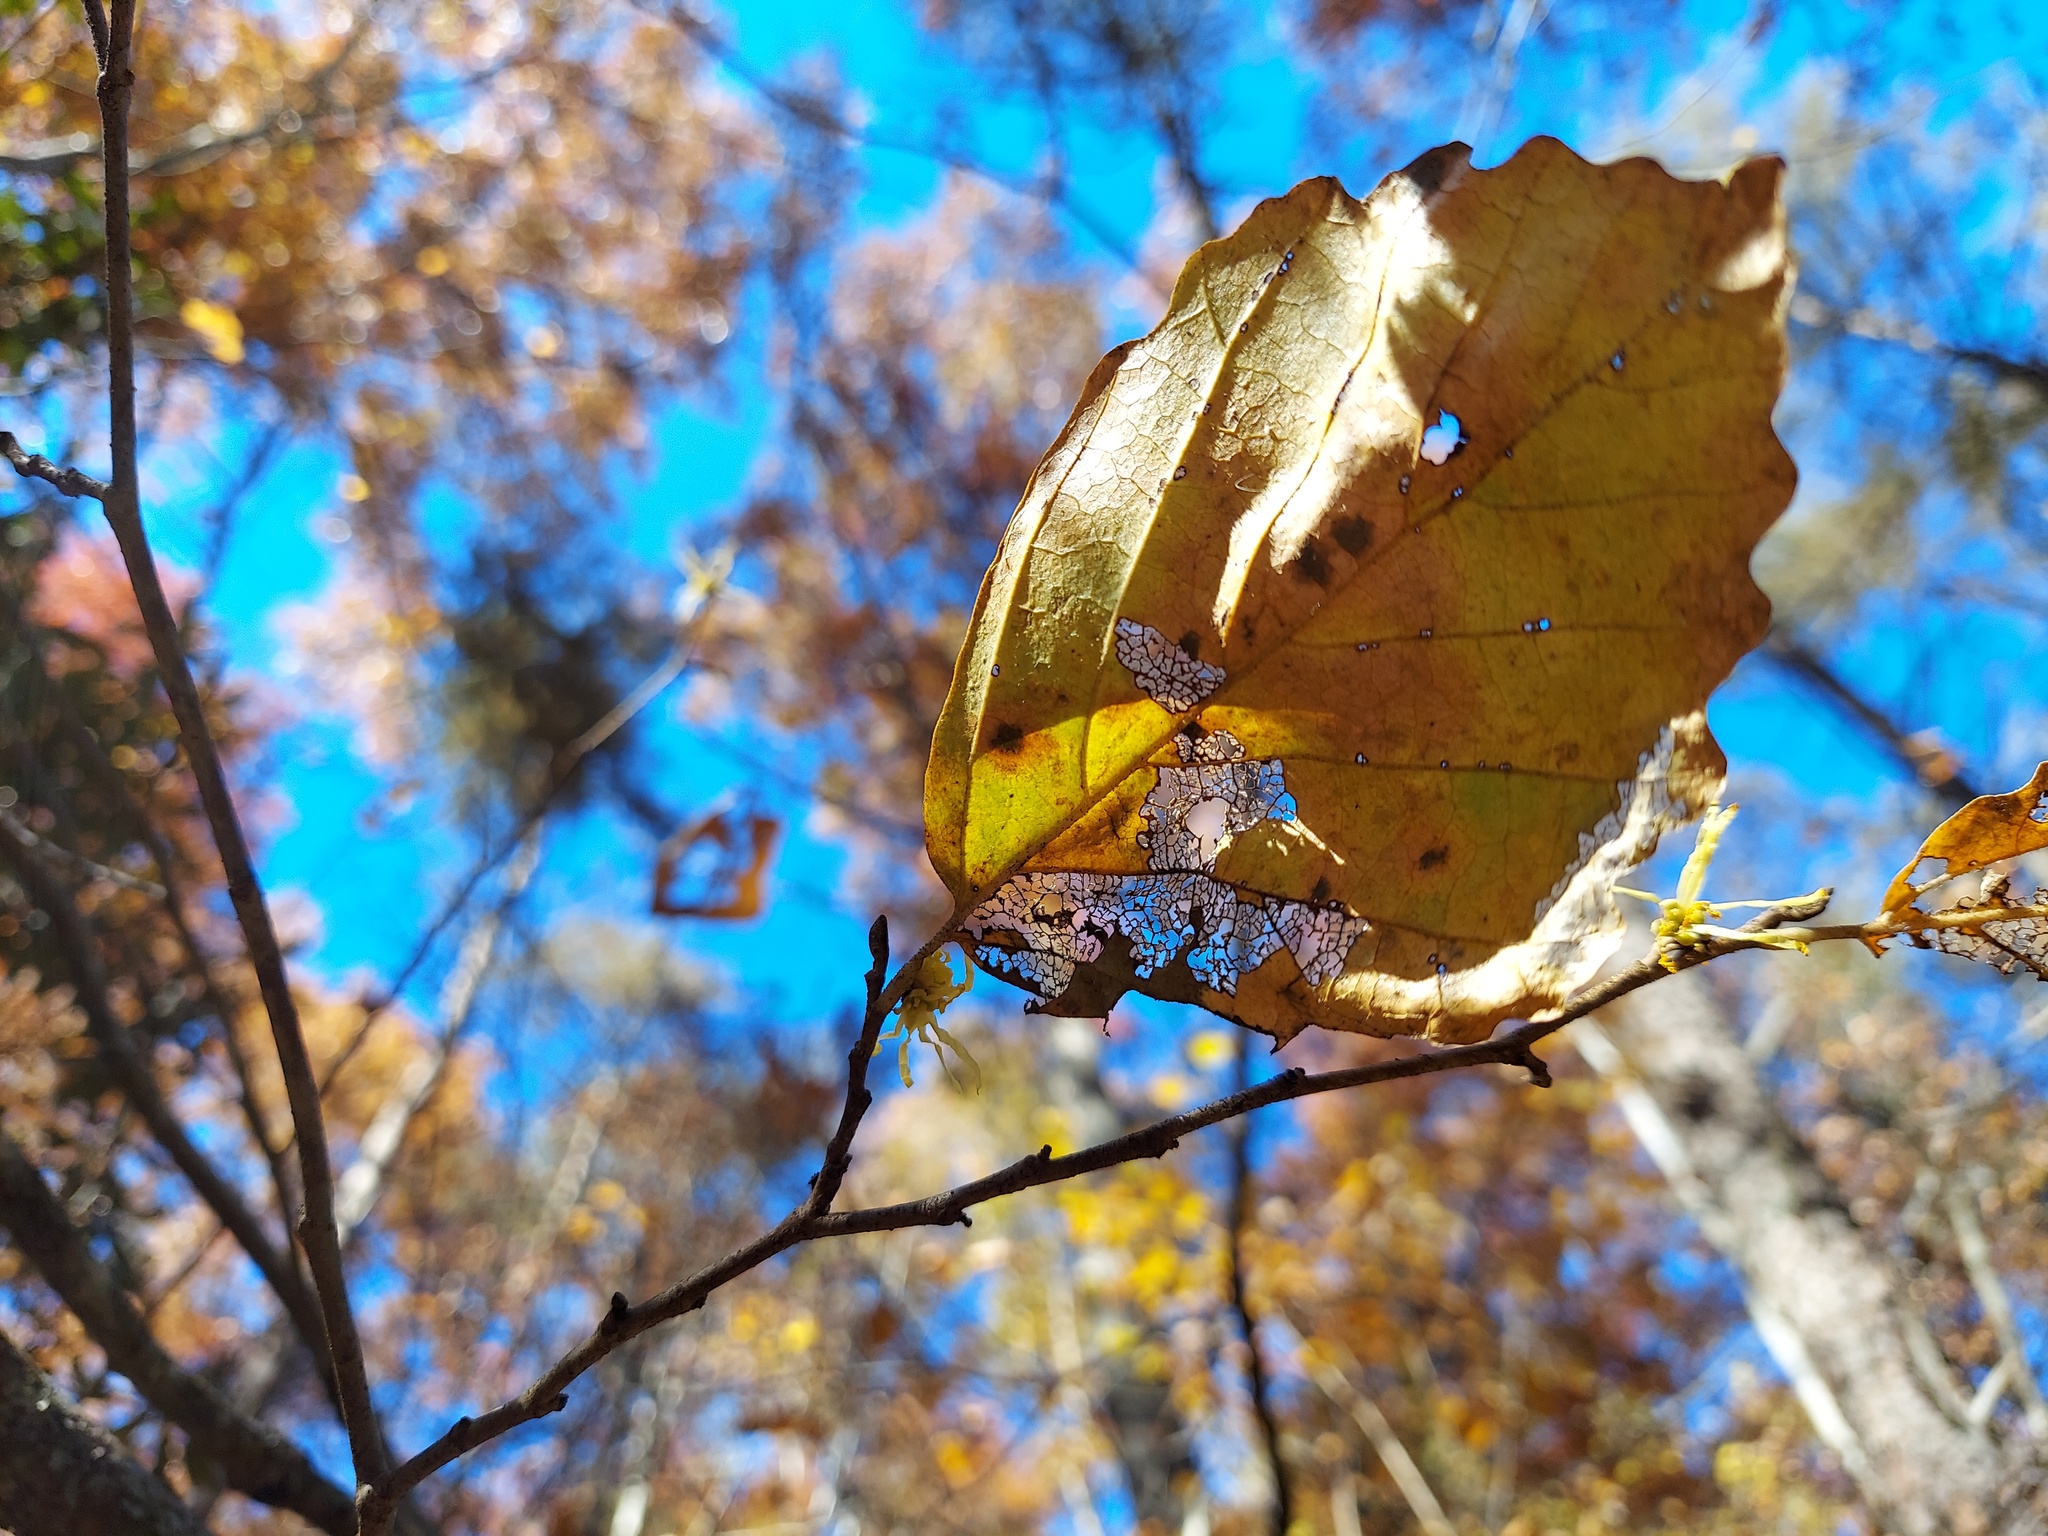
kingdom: Plantae
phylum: Tracheophyta
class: Magnoliopsida
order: Saxifragales
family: Hamamelidaceae
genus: Hamamelis
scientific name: Hamamelis virginiana
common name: Witch-hazel
